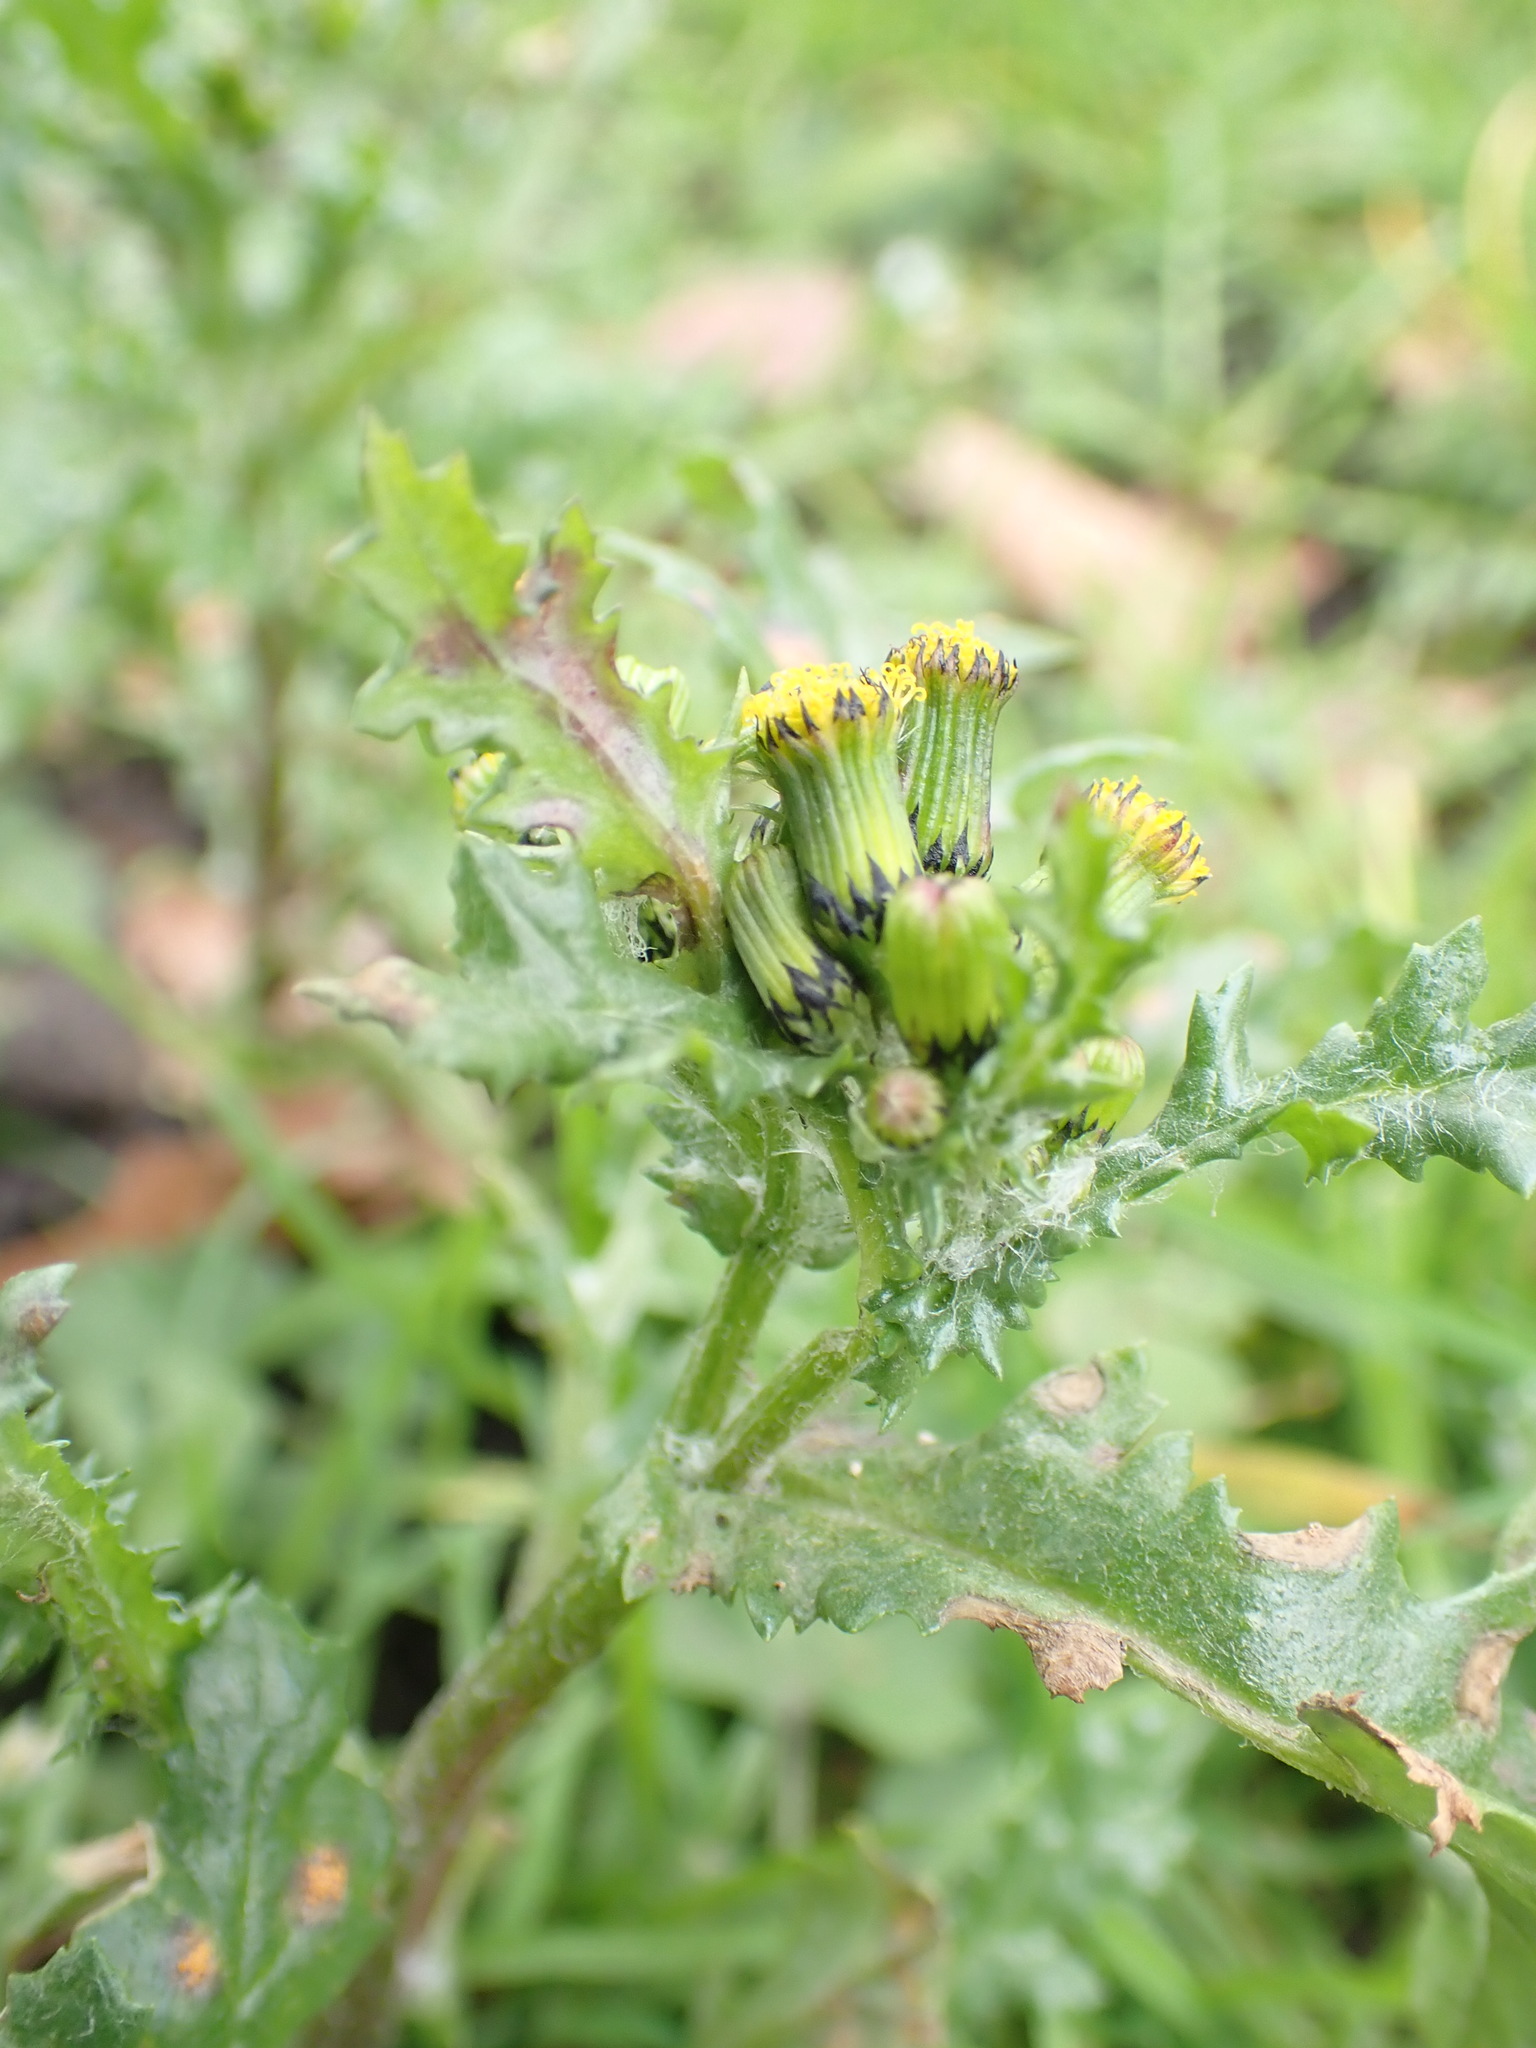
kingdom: Plantae
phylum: Tracheophyta
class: Magnoliopsida
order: Asterales
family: Asteraceae
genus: Senecio
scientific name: Senecio vulgaris
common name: Old-man-in-the-spring
